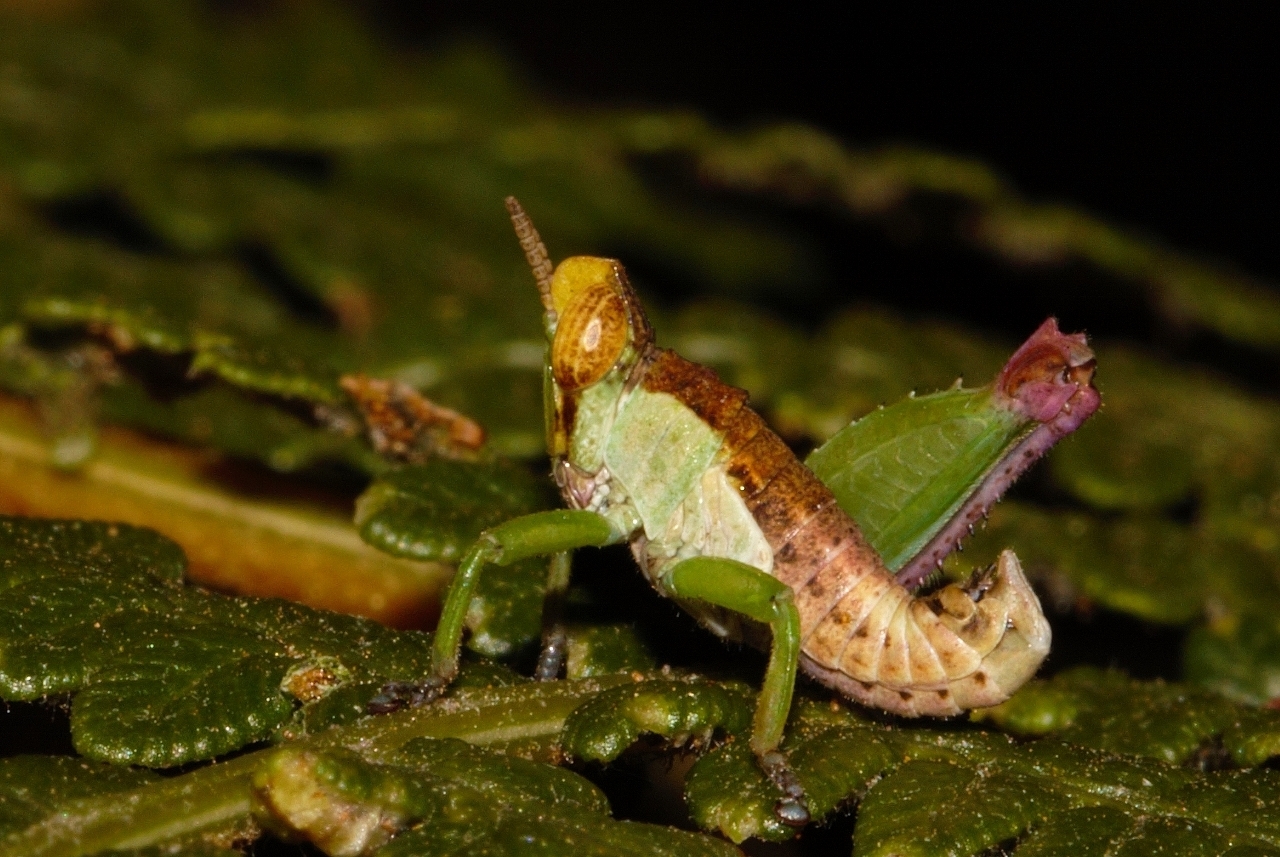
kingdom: Animalia
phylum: Arthropoda
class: Insecta
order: Orthoptera
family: Thericleidae
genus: Schulthessiella
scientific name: Schulthessiella difficilis
